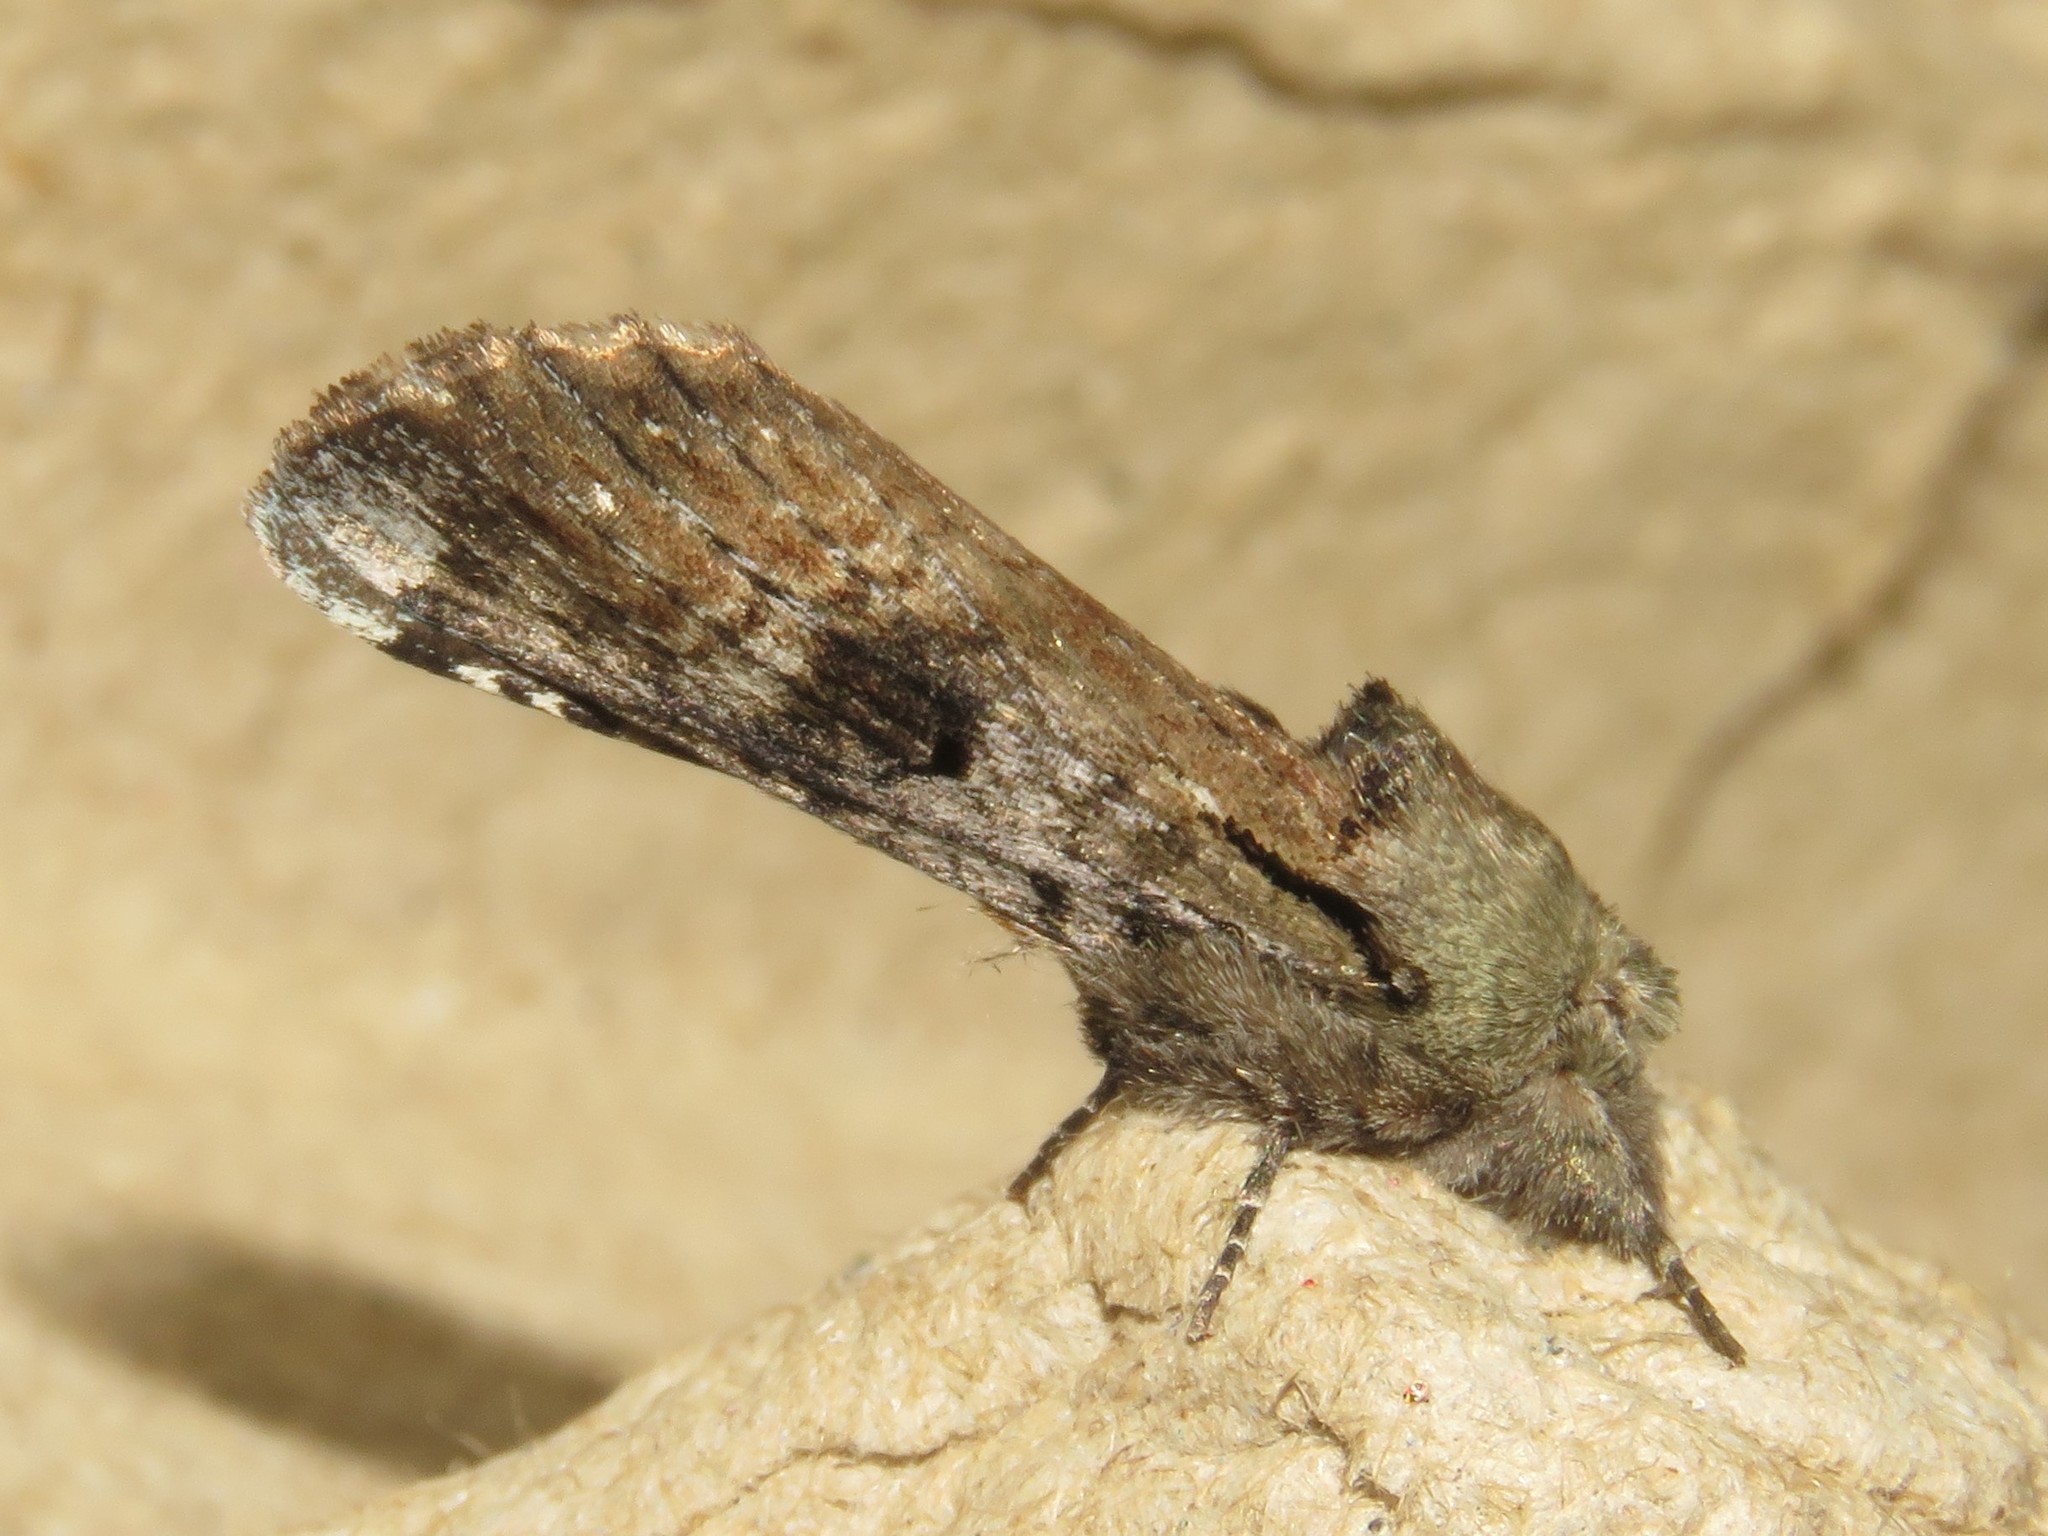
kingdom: Animalia
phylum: Arthropoda
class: Insecta
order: Lepidoptera
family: Notodontidae
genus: Schizura
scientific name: Schizura
